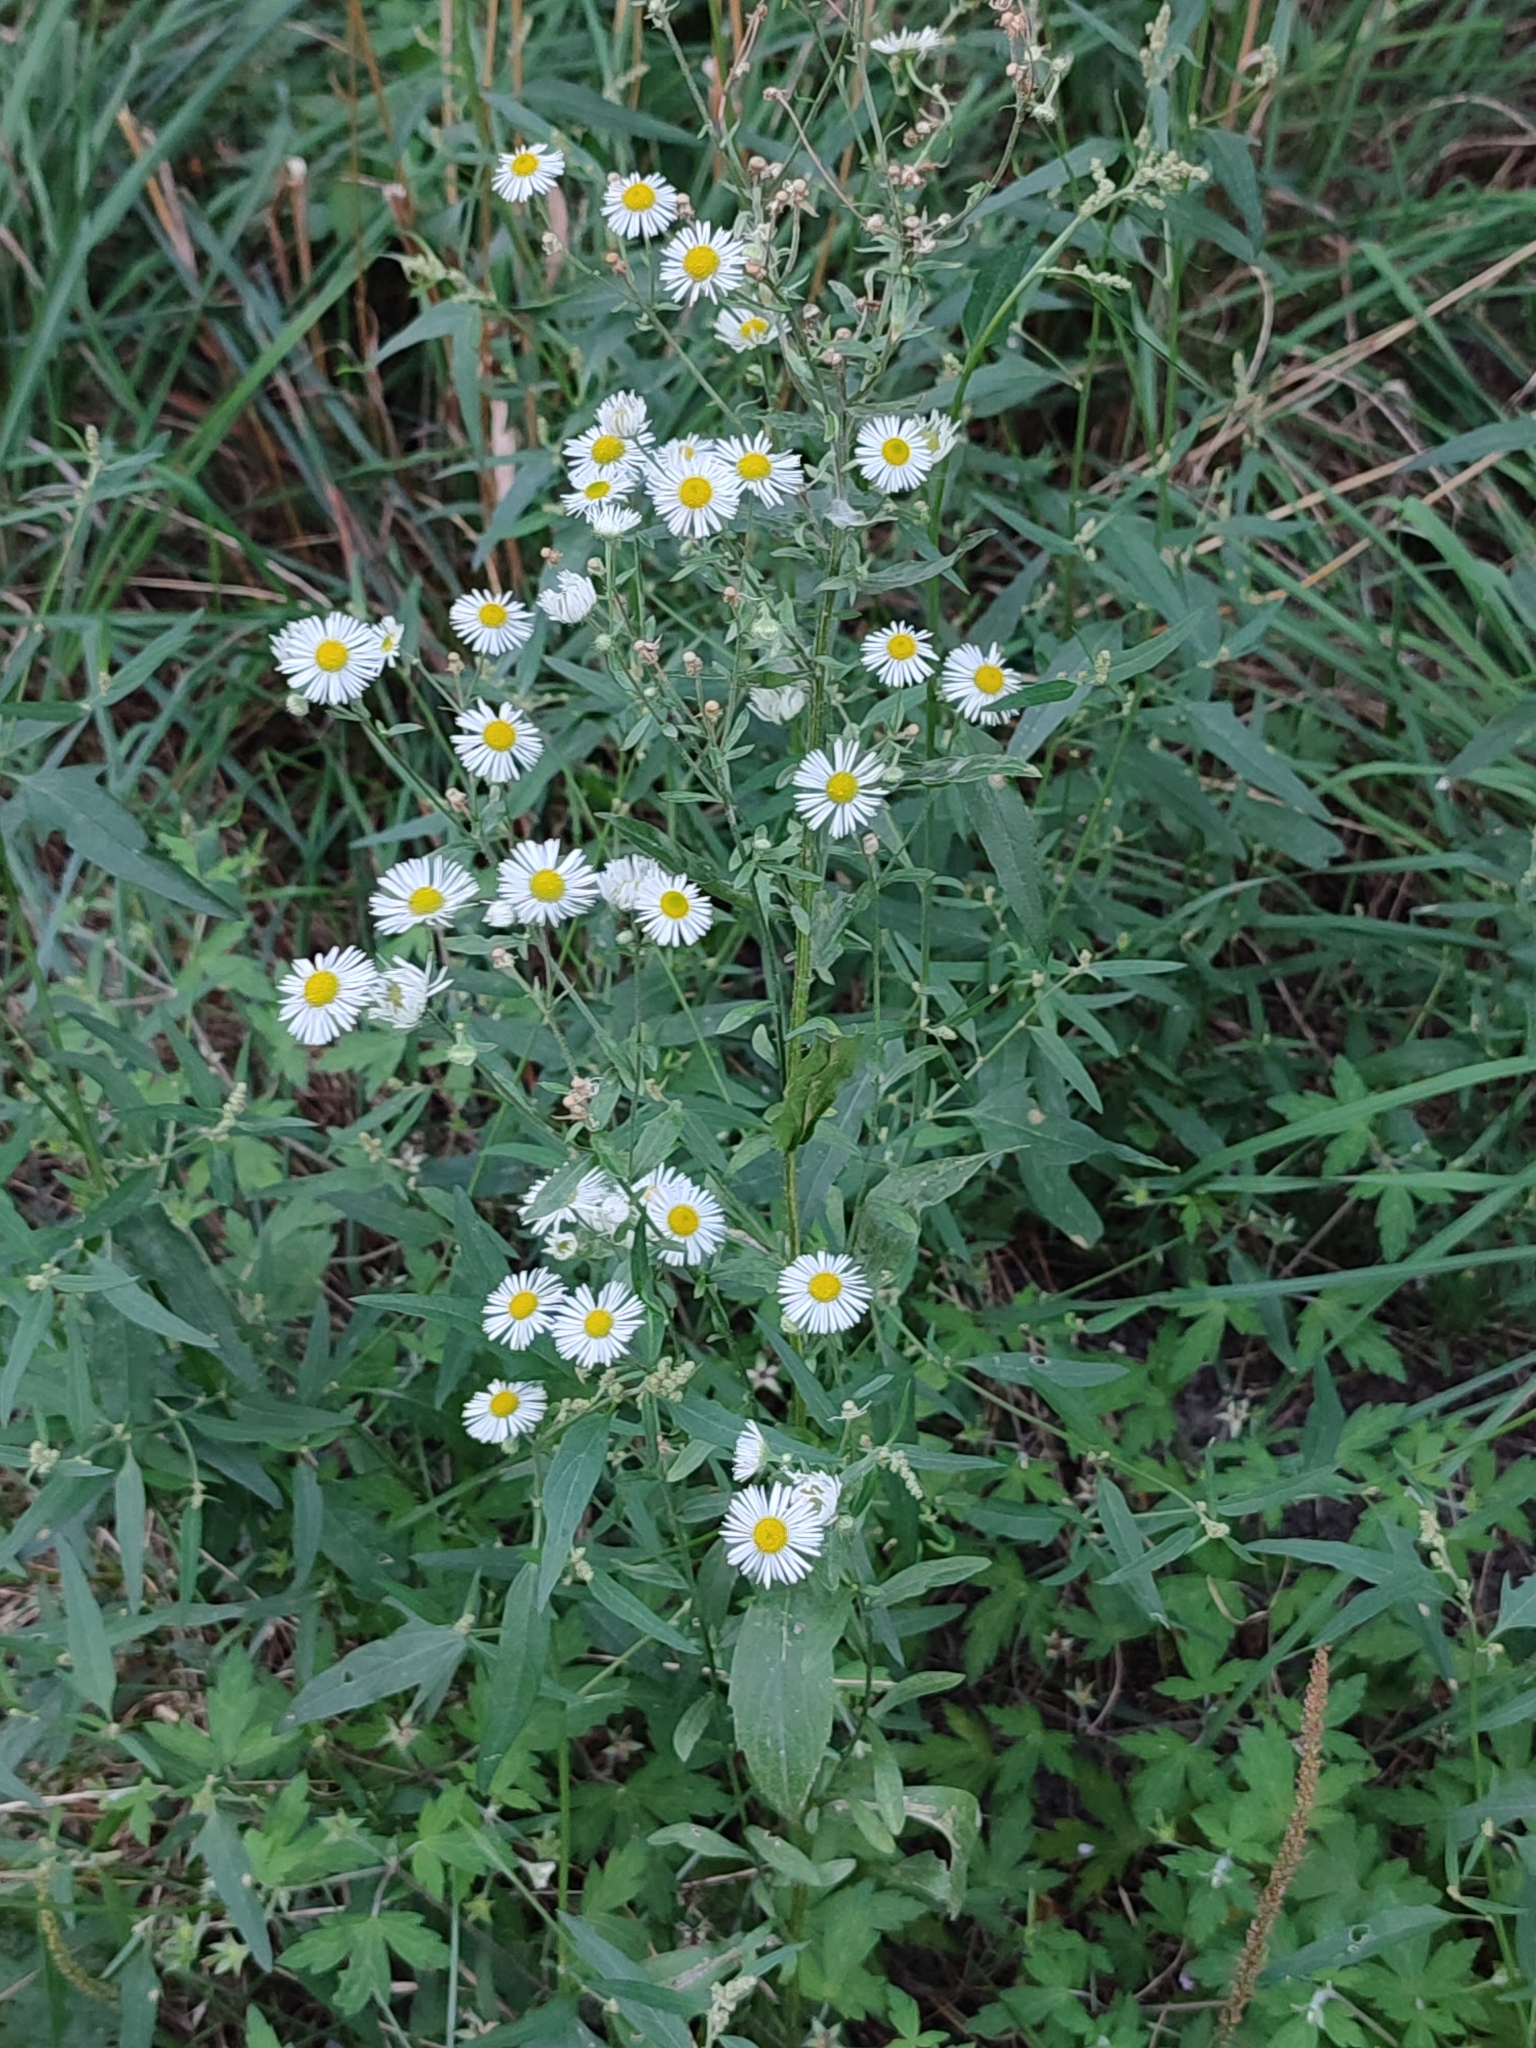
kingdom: Plantae
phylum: Tracheophyta
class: Magnoliopsida
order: Asterales
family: Asteraceae
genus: Erigeron
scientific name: Erigeron annuus
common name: Tall fleabane
